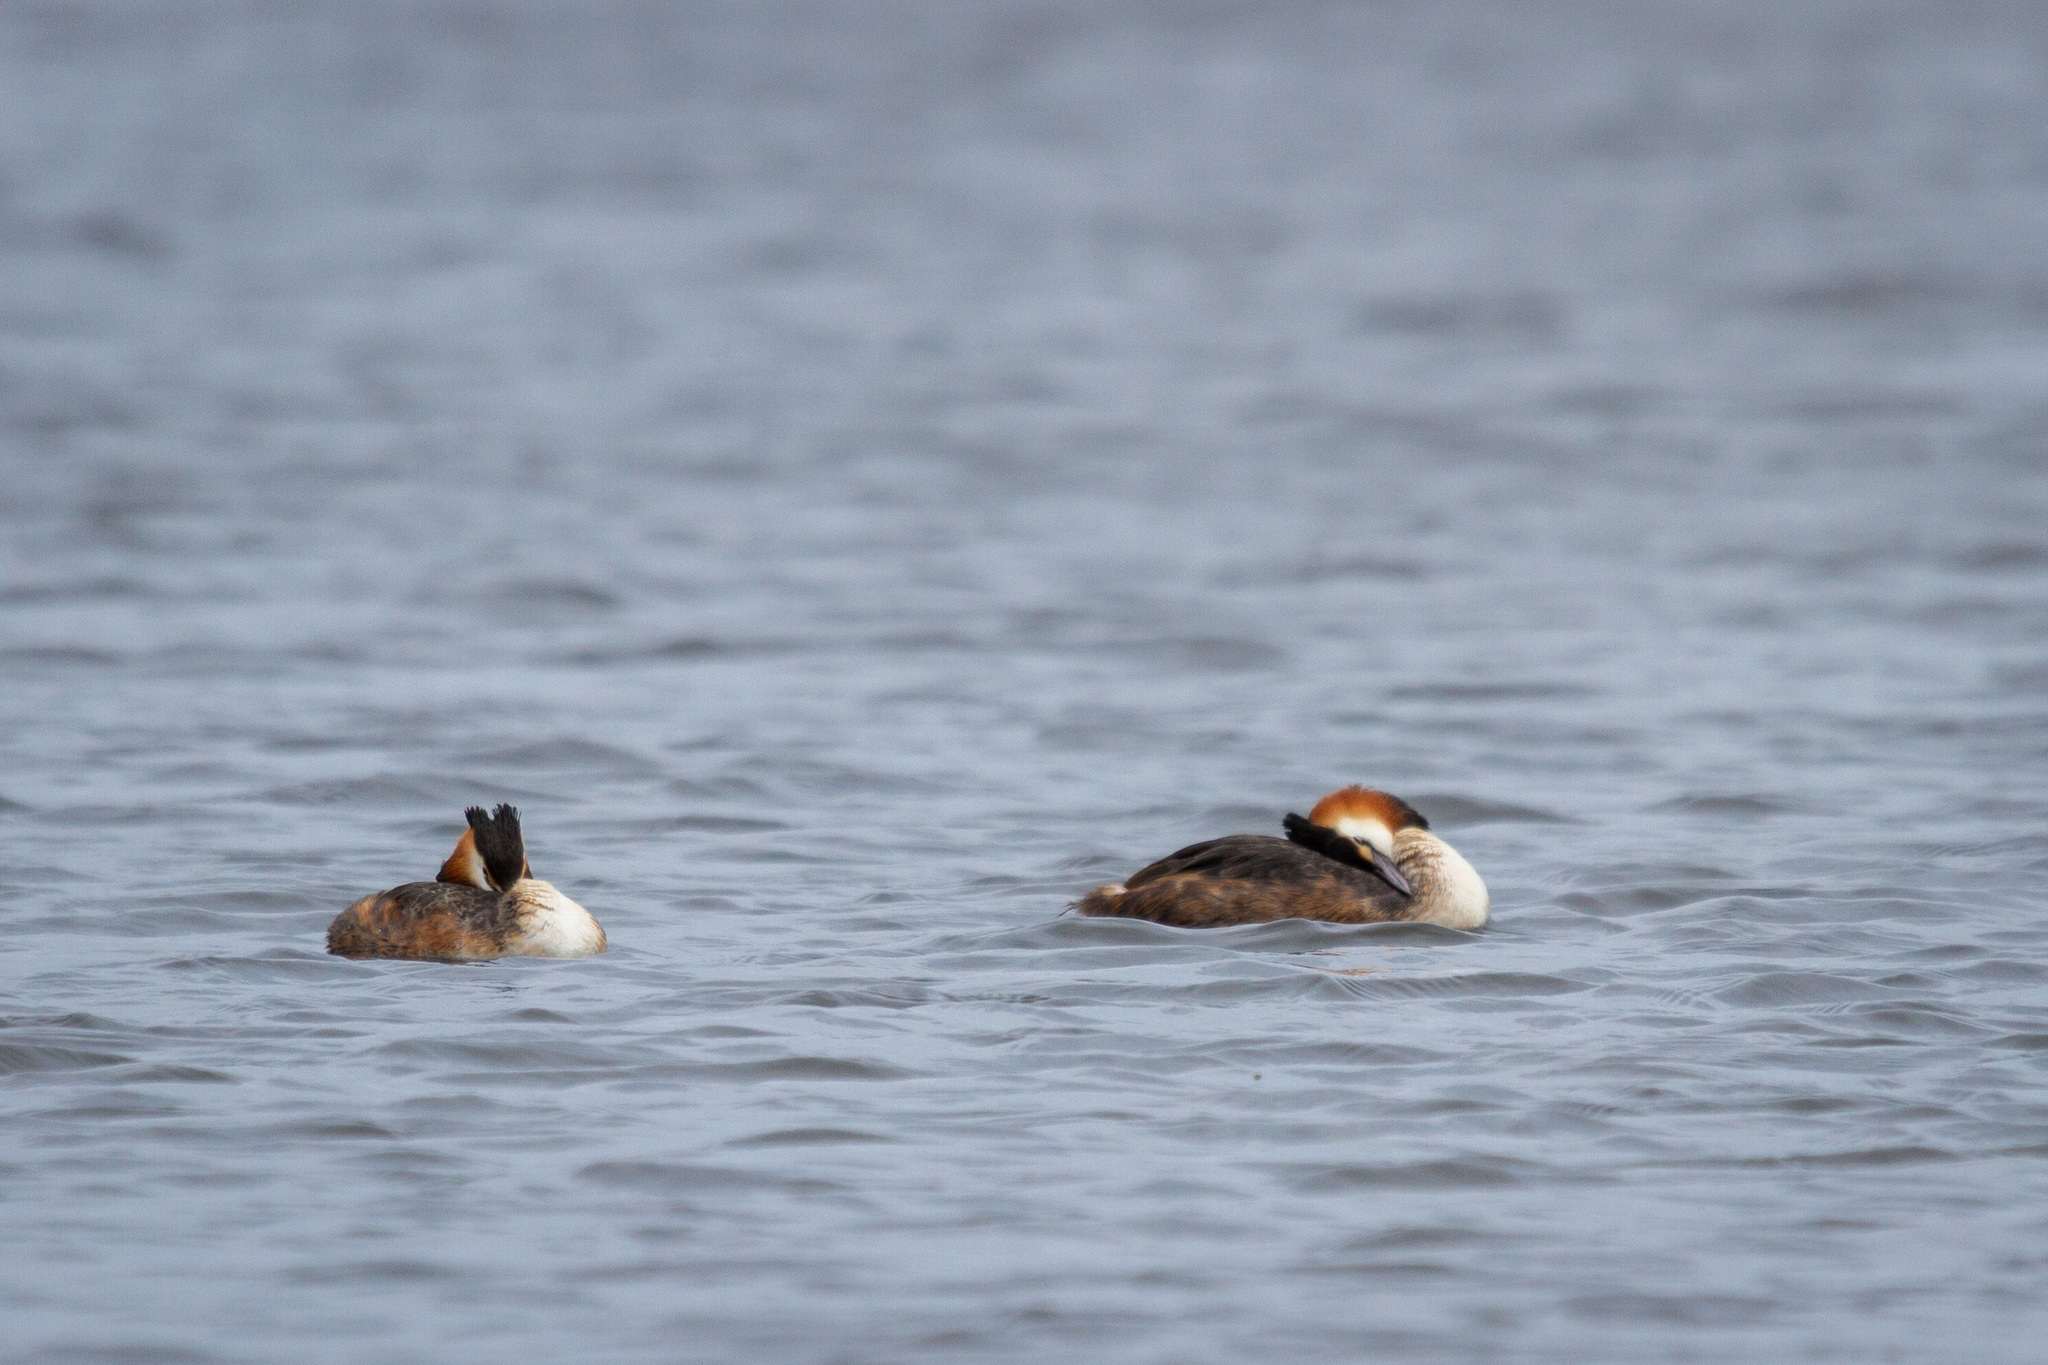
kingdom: Animalia
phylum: Chordata
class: Aves
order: Podicipediformes
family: Podicipedidae
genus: Podiceps
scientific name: Podiceps cristatus
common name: Great crested grebe
